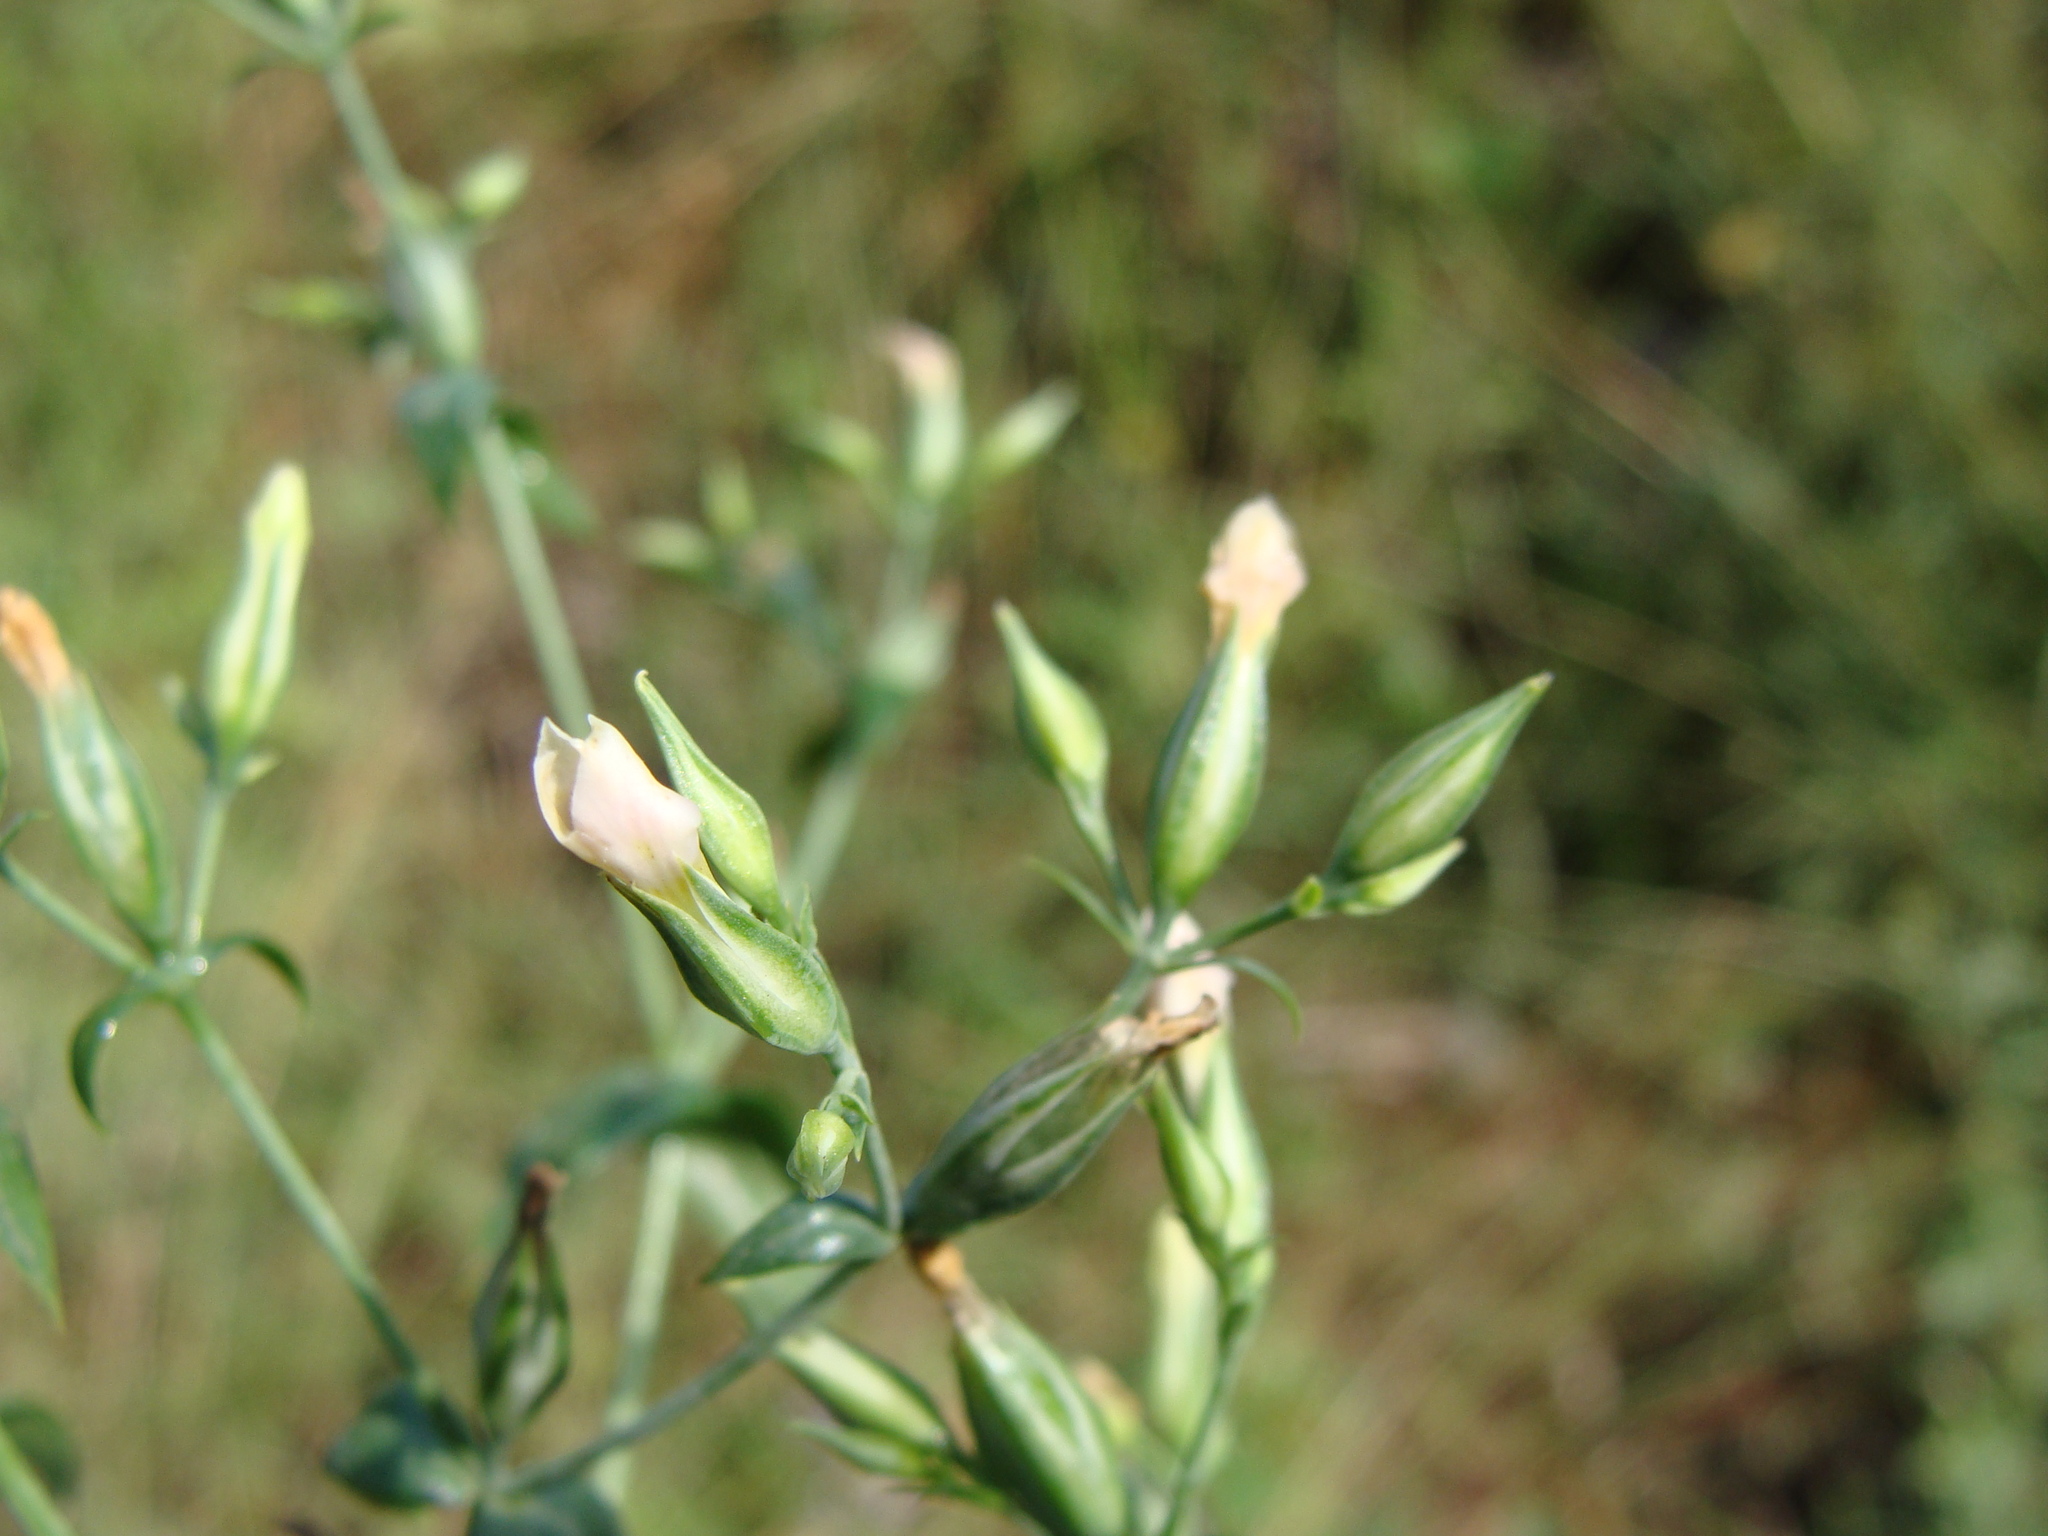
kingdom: Plantae
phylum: Tracheophyta
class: Magnoliopsida
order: Gentianales
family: Gentianaceae
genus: Schultesia
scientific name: Schultesia lisianthoides
